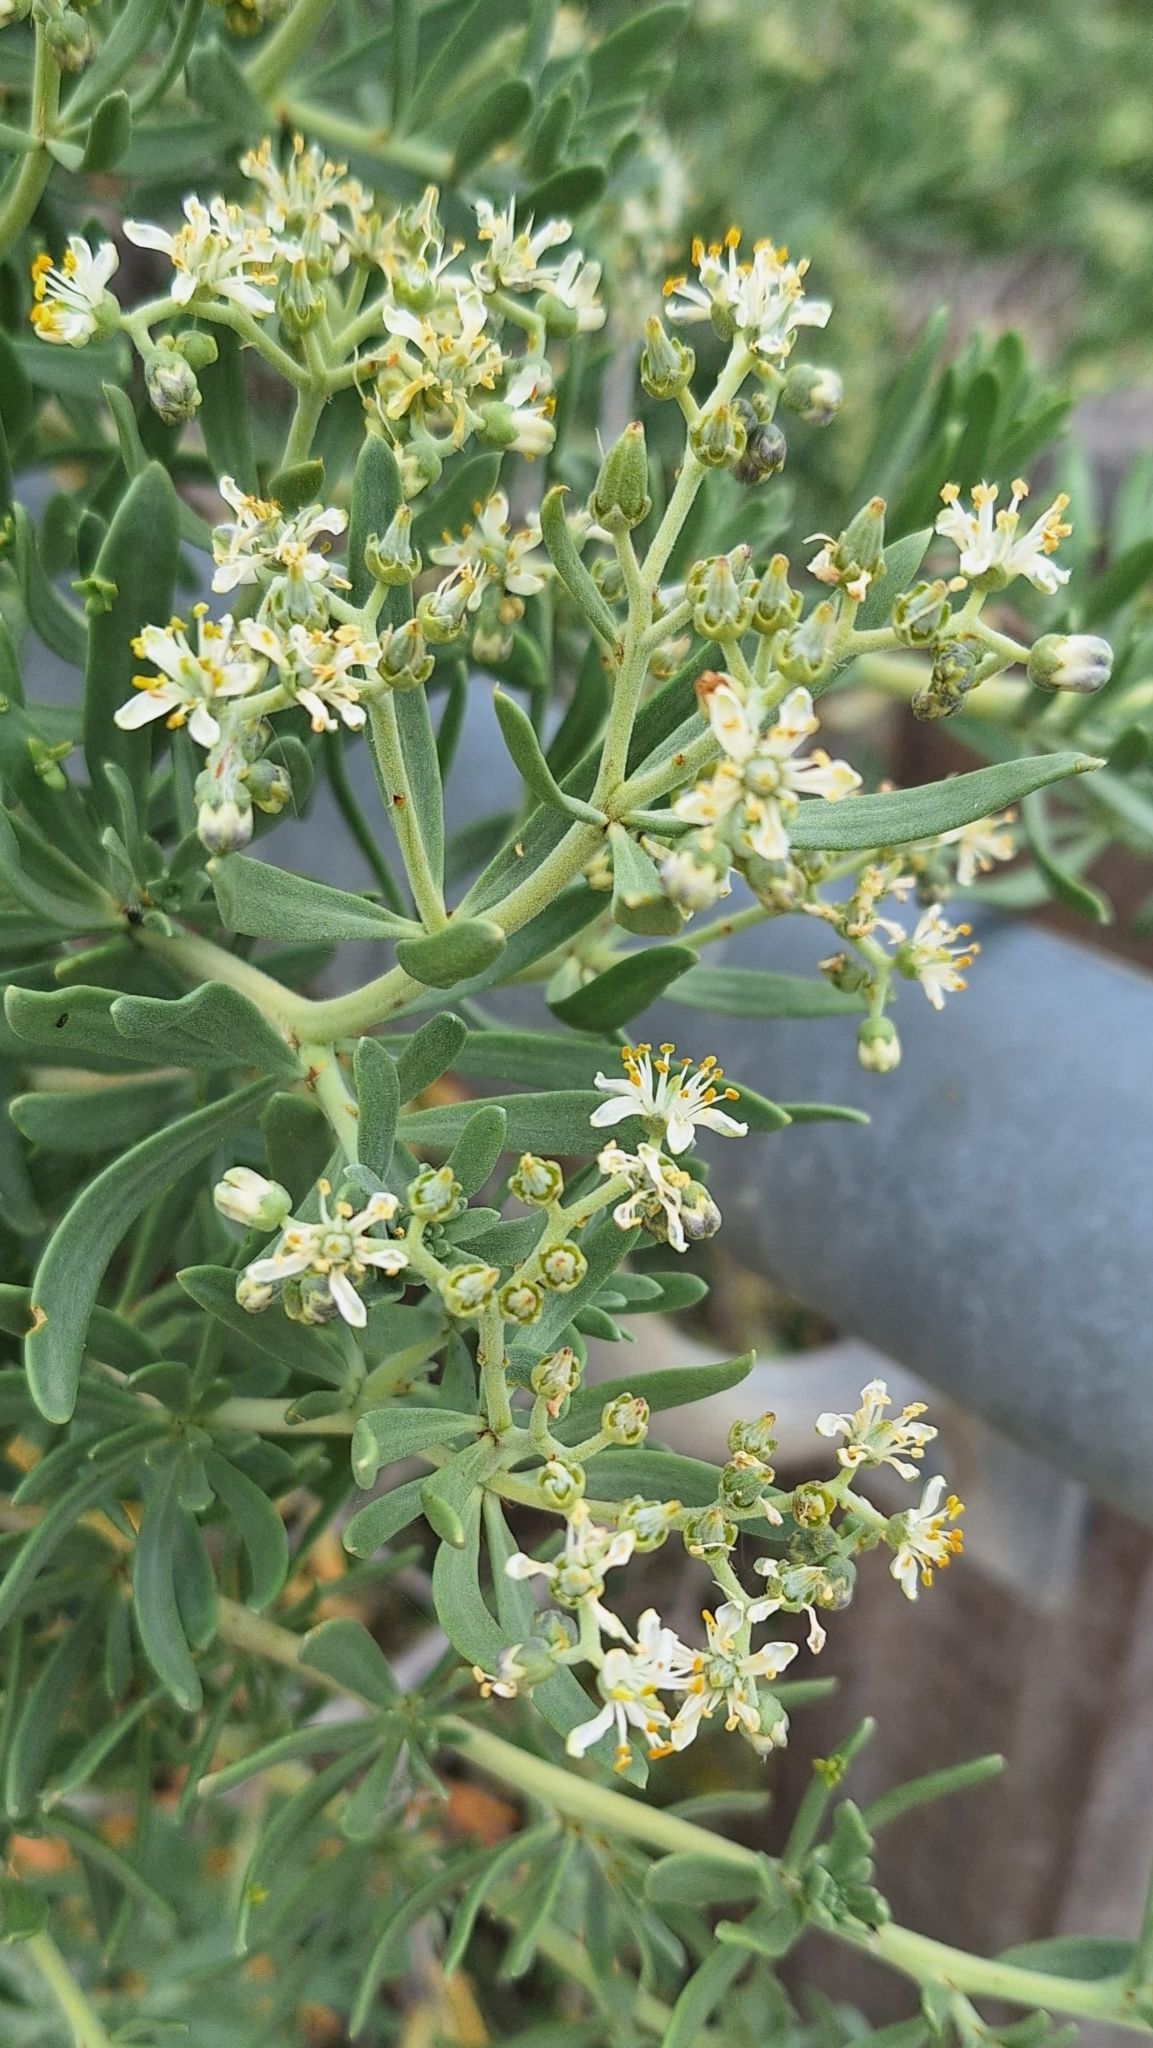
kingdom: Plantae
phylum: Tracheophyta
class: Magnoliopsida
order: Sapindales
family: Nitrariaceae
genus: Nitraria
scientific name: Nitraria billardierei
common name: Dillonbush
